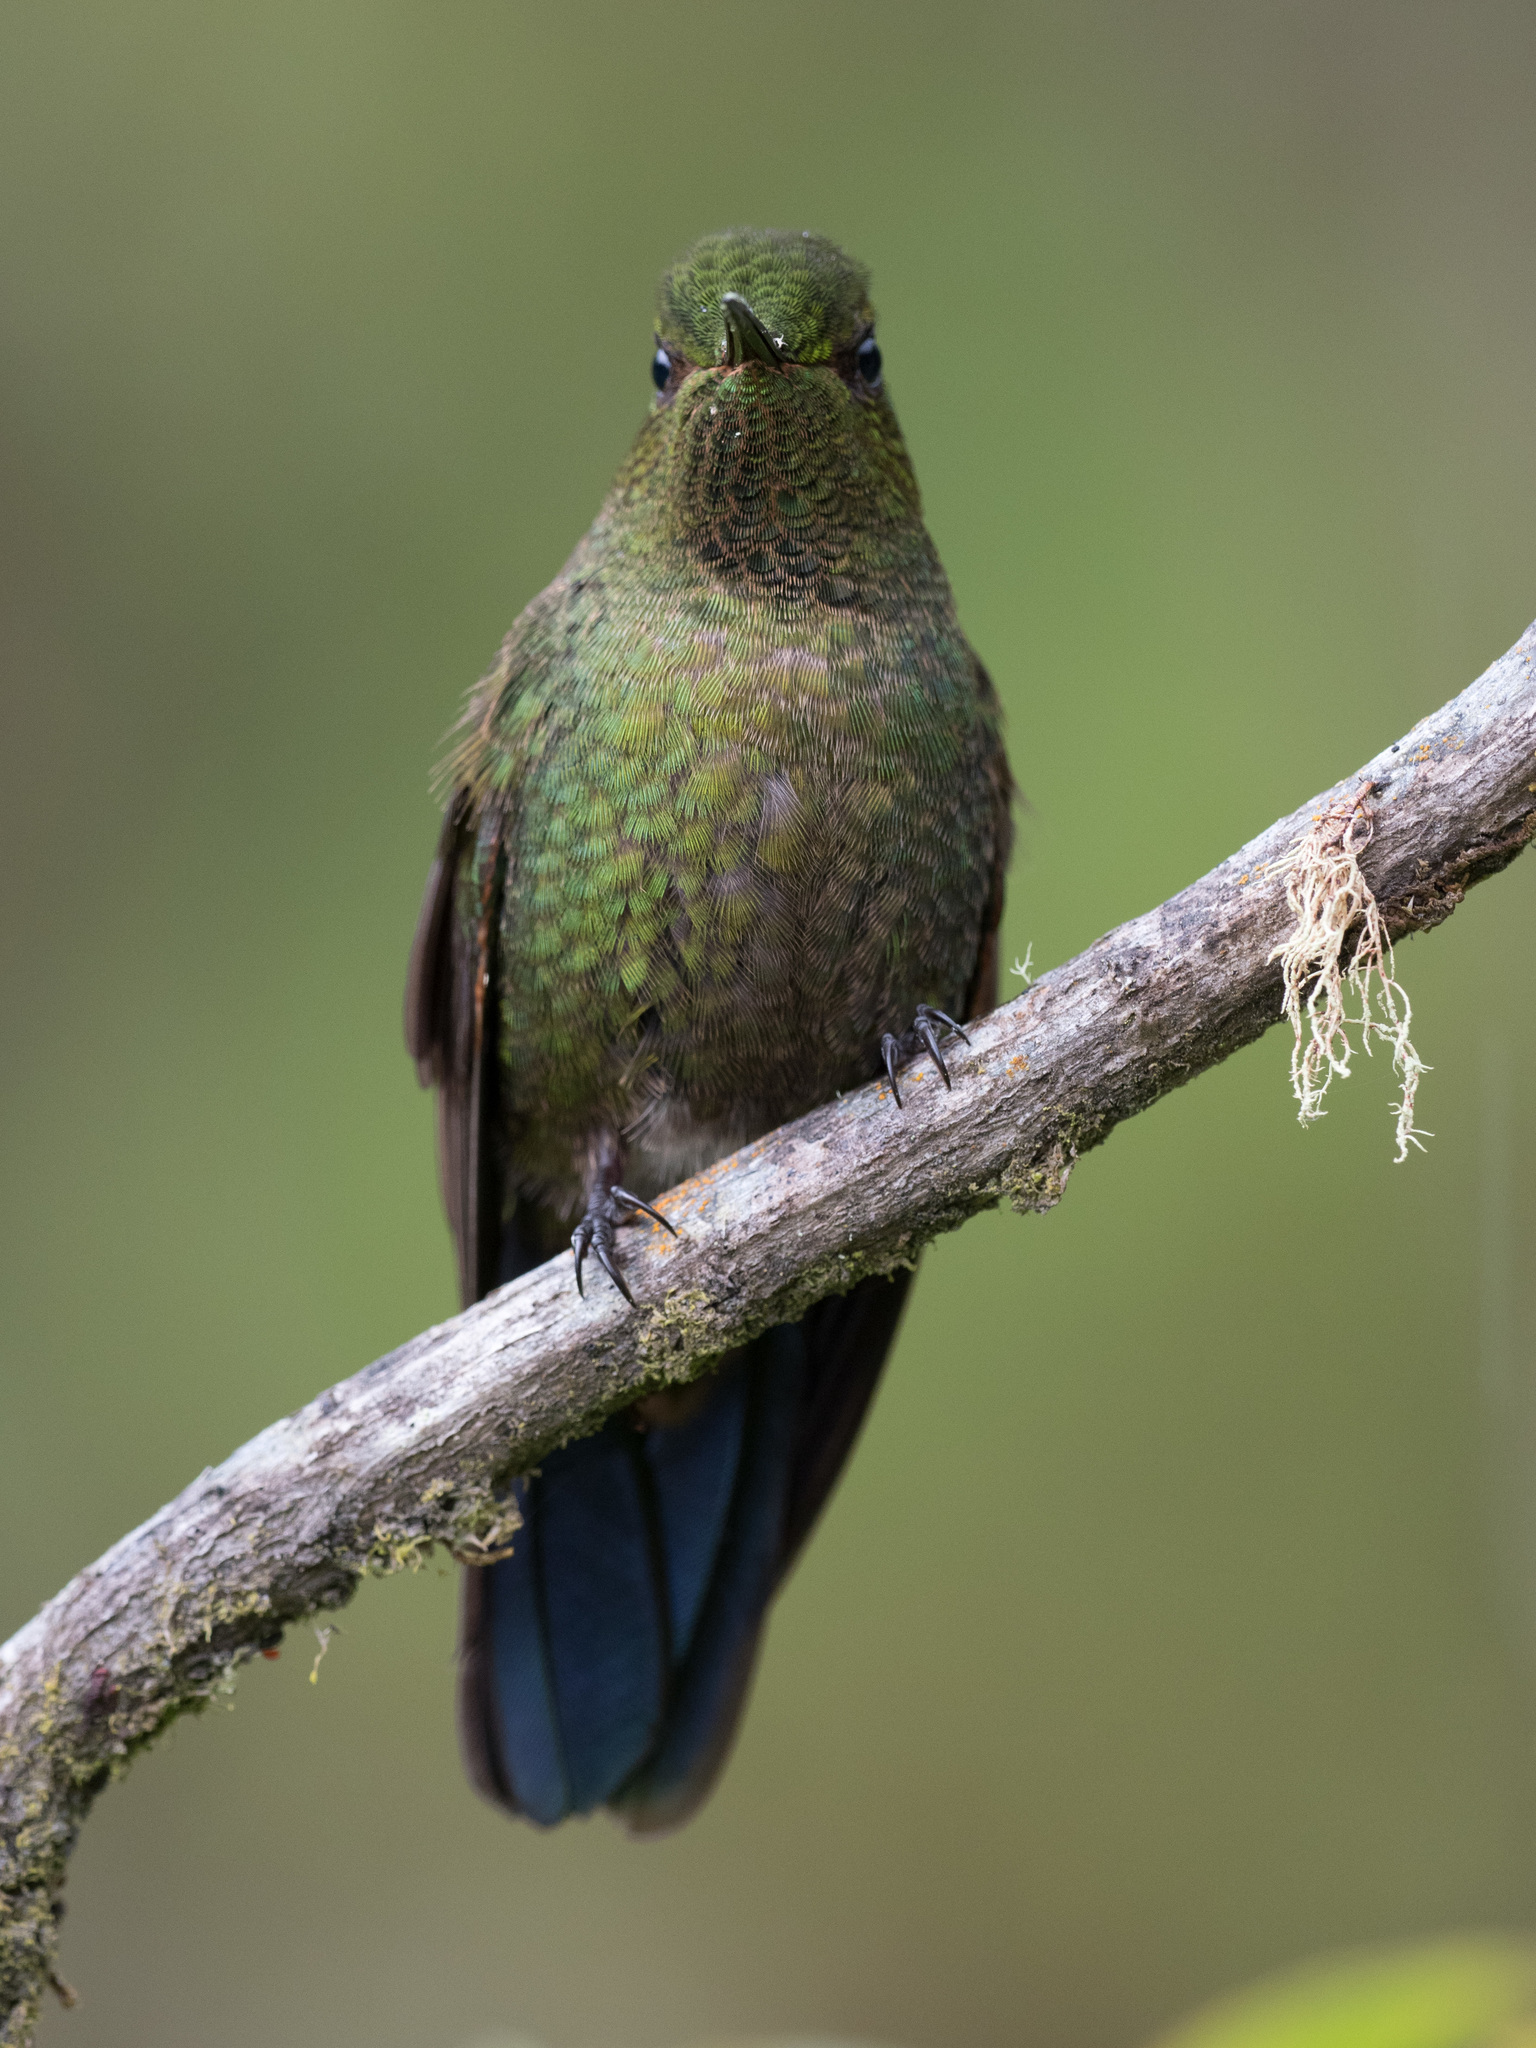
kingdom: Animalia
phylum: Chordata
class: Aves
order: Apodiformes
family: Trochilidae
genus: Metallura
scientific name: Metallura williami
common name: Viridian metaltail
